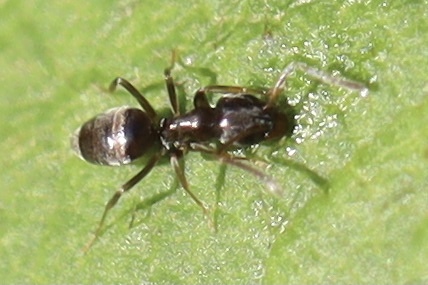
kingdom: Animalia
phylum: Arthropoda
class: Insecta
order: Hymenoptera
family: Formicidae
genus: Tapinoma
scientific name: Tapinoma sessile
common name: Odorous house ant
